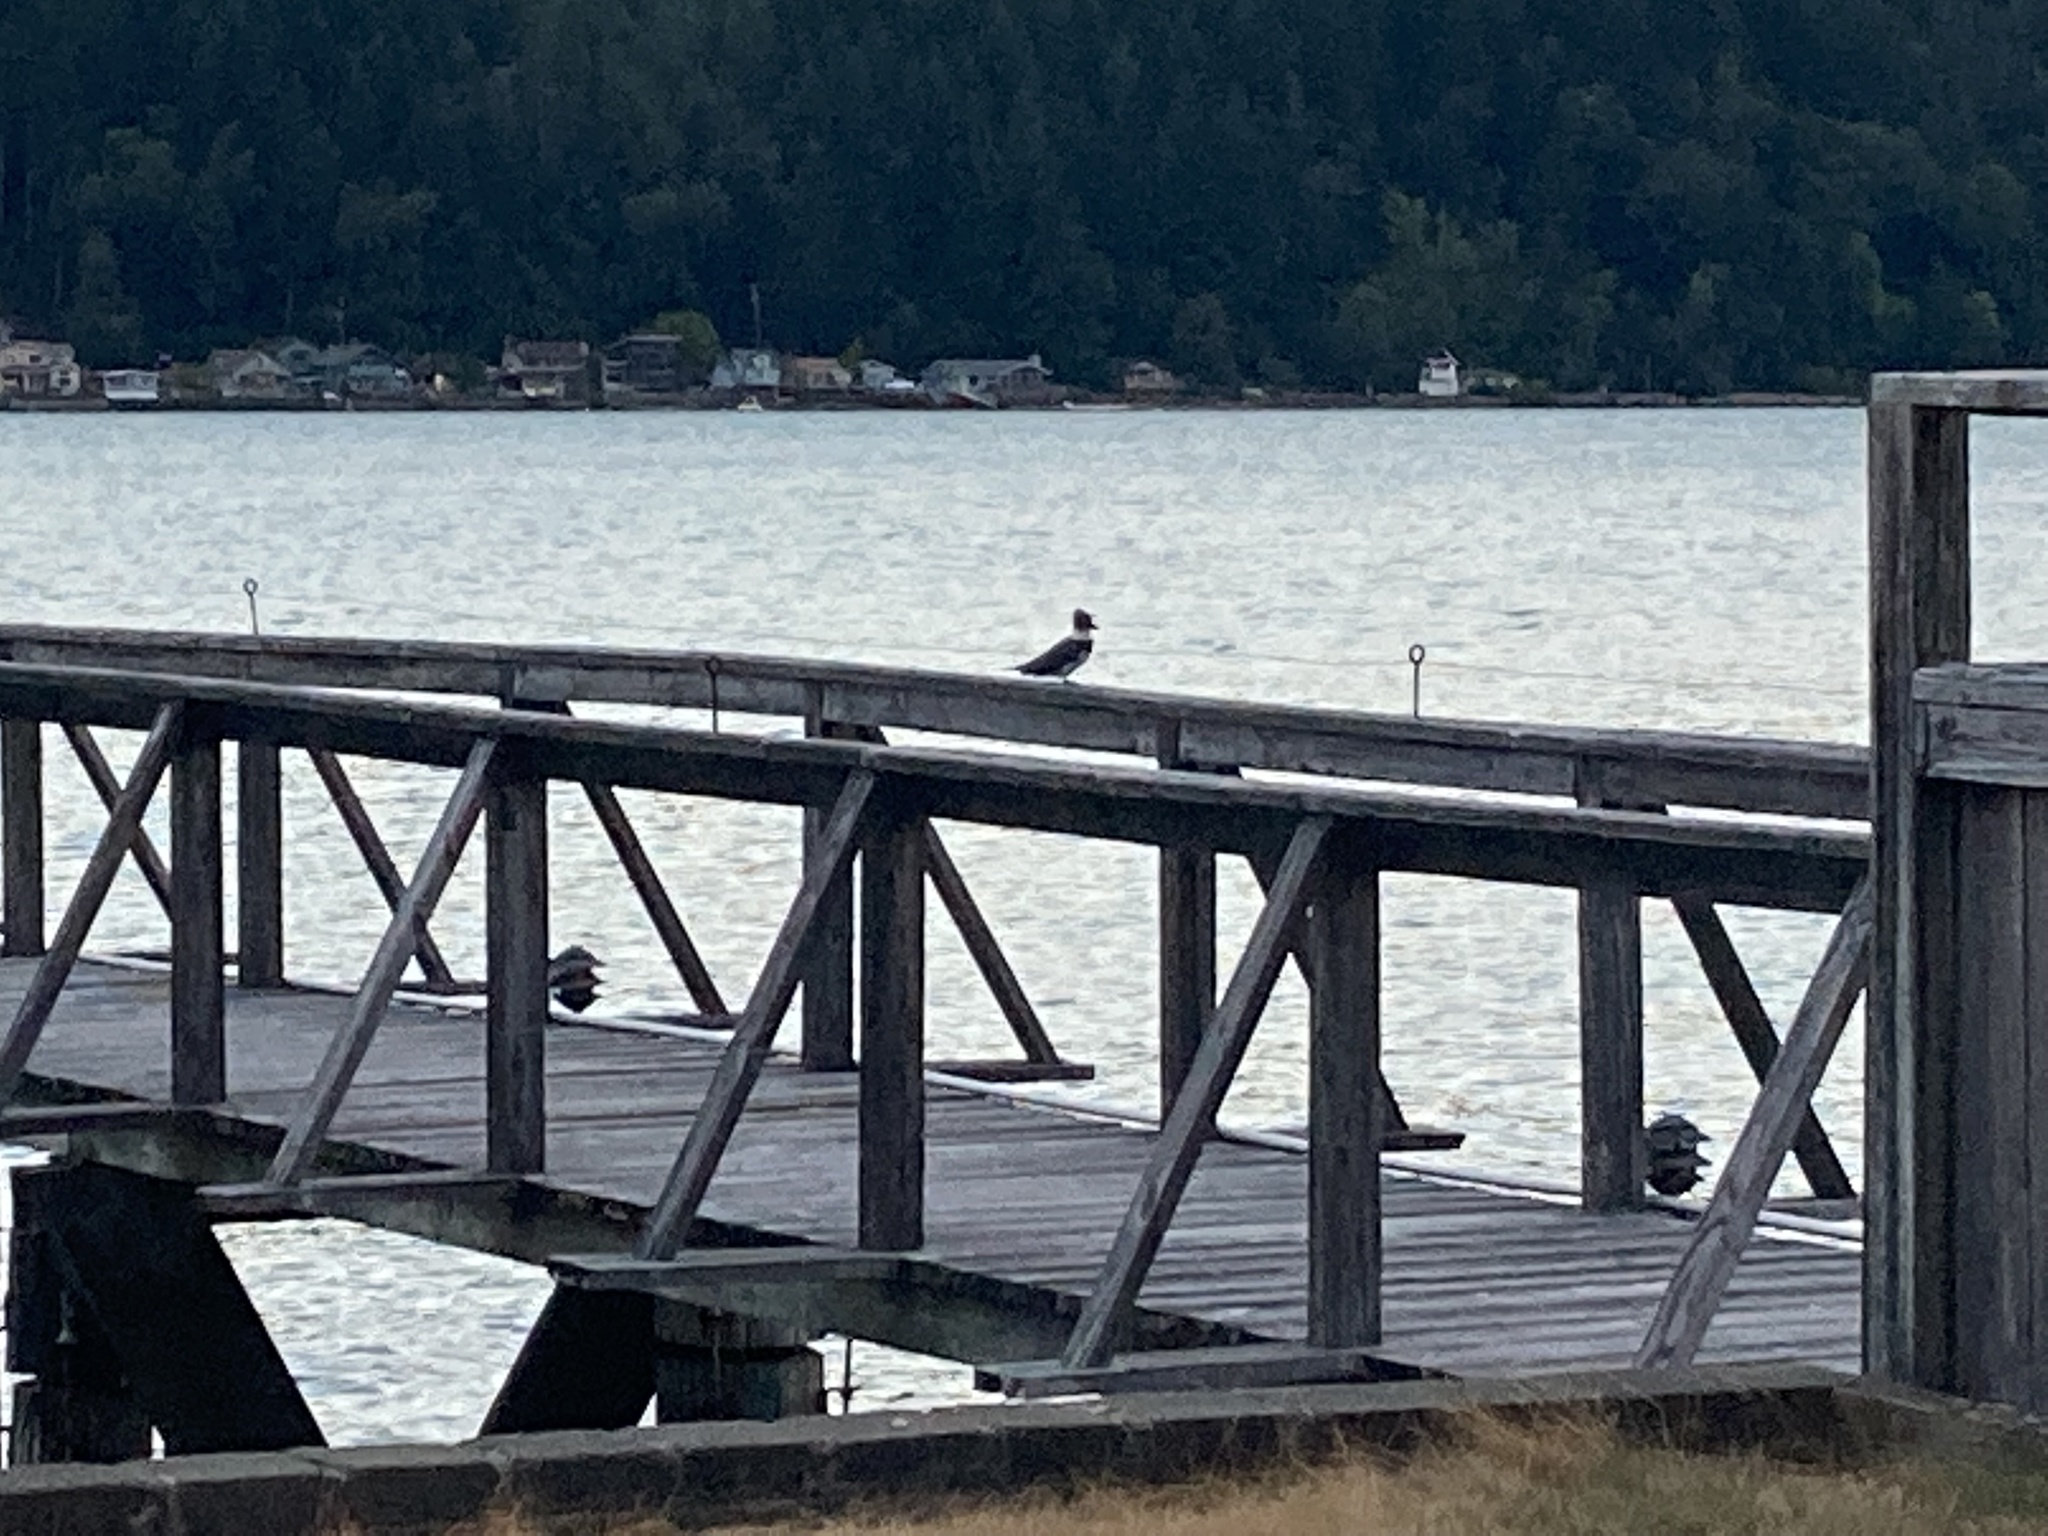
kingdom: Animalia
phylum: Chordata
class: Aves
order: Coraciiformes
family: Alcedinidae
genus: Megaceryle
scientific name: Megaceryle alcyon
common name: Belted kingfisher
